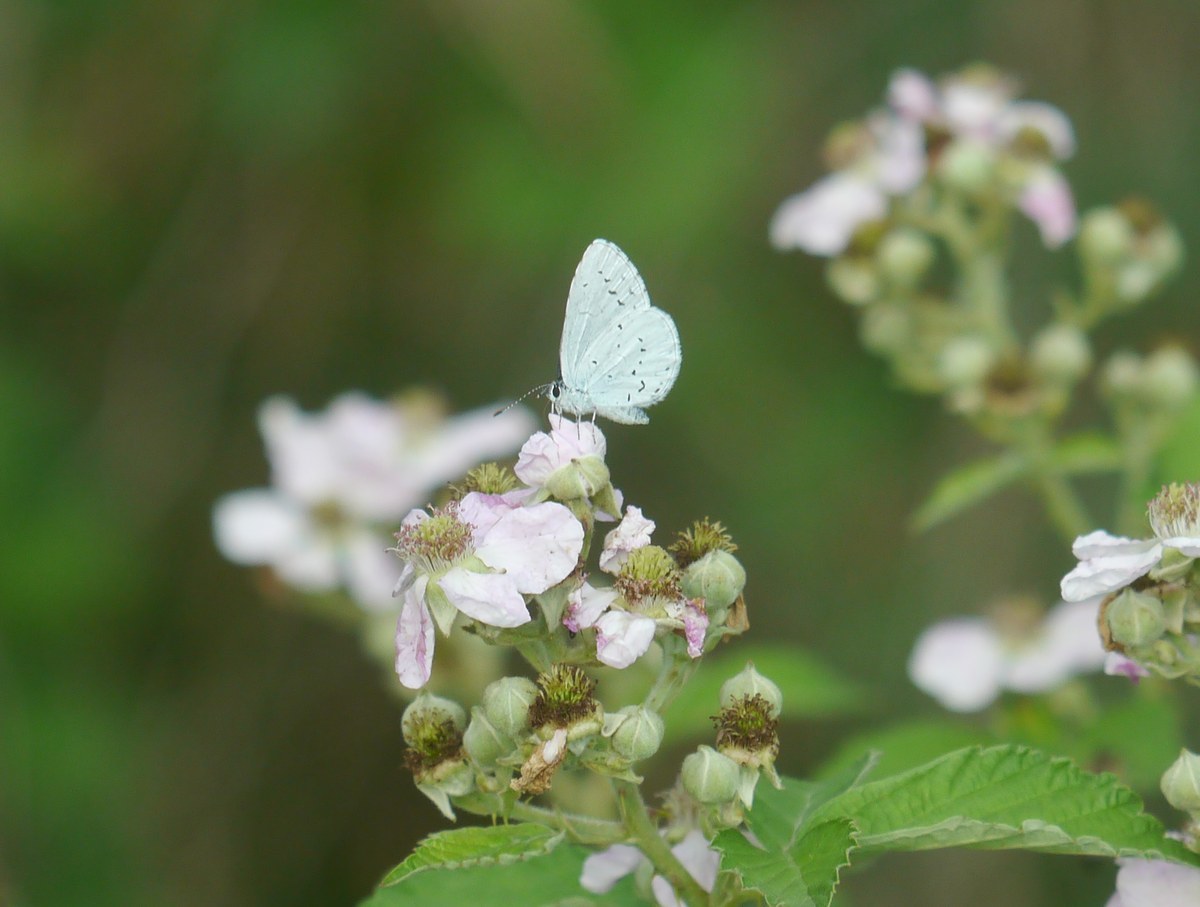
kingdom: Animalia
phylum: Arthropoda
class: Insecta
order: Lepidoptera
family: Lycaenidae
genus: Celastrina
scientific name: Celastrina argiolus
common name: Holly blue
